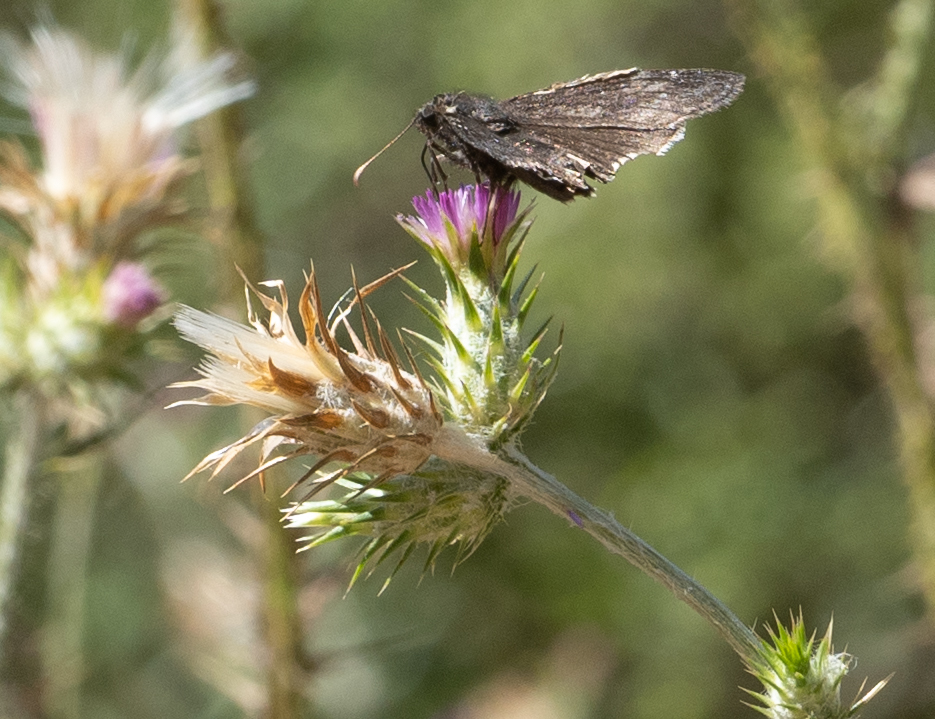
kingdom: Animalia
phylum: Arthropoda
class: Insecta
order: Lepidoptera
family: Hesperiidae
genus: Erynnis
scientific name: Erynnis funeralis
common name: Funereal duskywing
